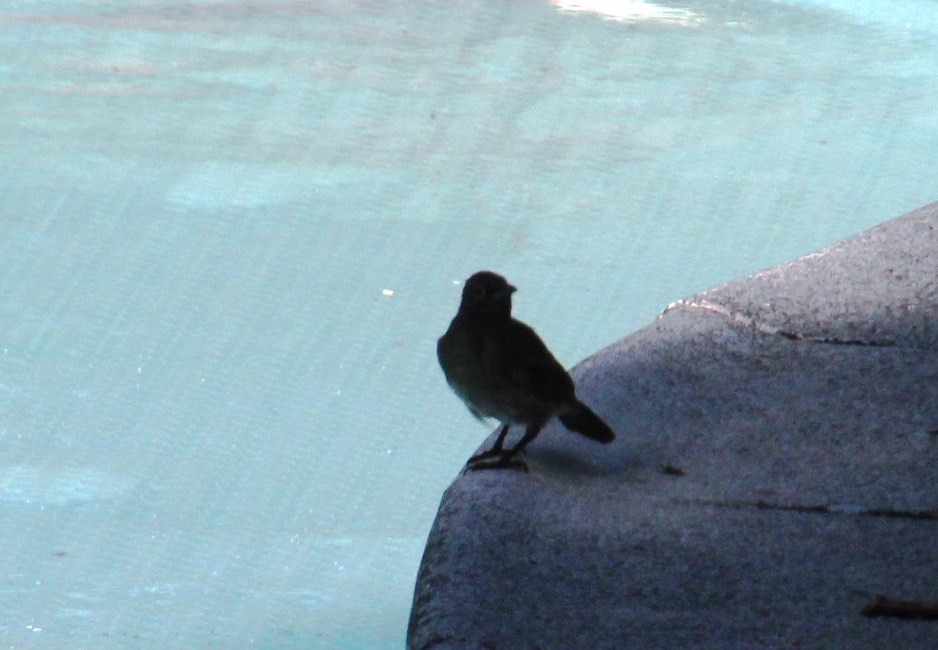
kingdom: Animalia
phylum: Chordata
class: Aves
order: Passeriformes
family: Pycnonotidae
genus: Pycnonotus
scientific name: Pycnonotus capensis
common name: Cape bulbul
